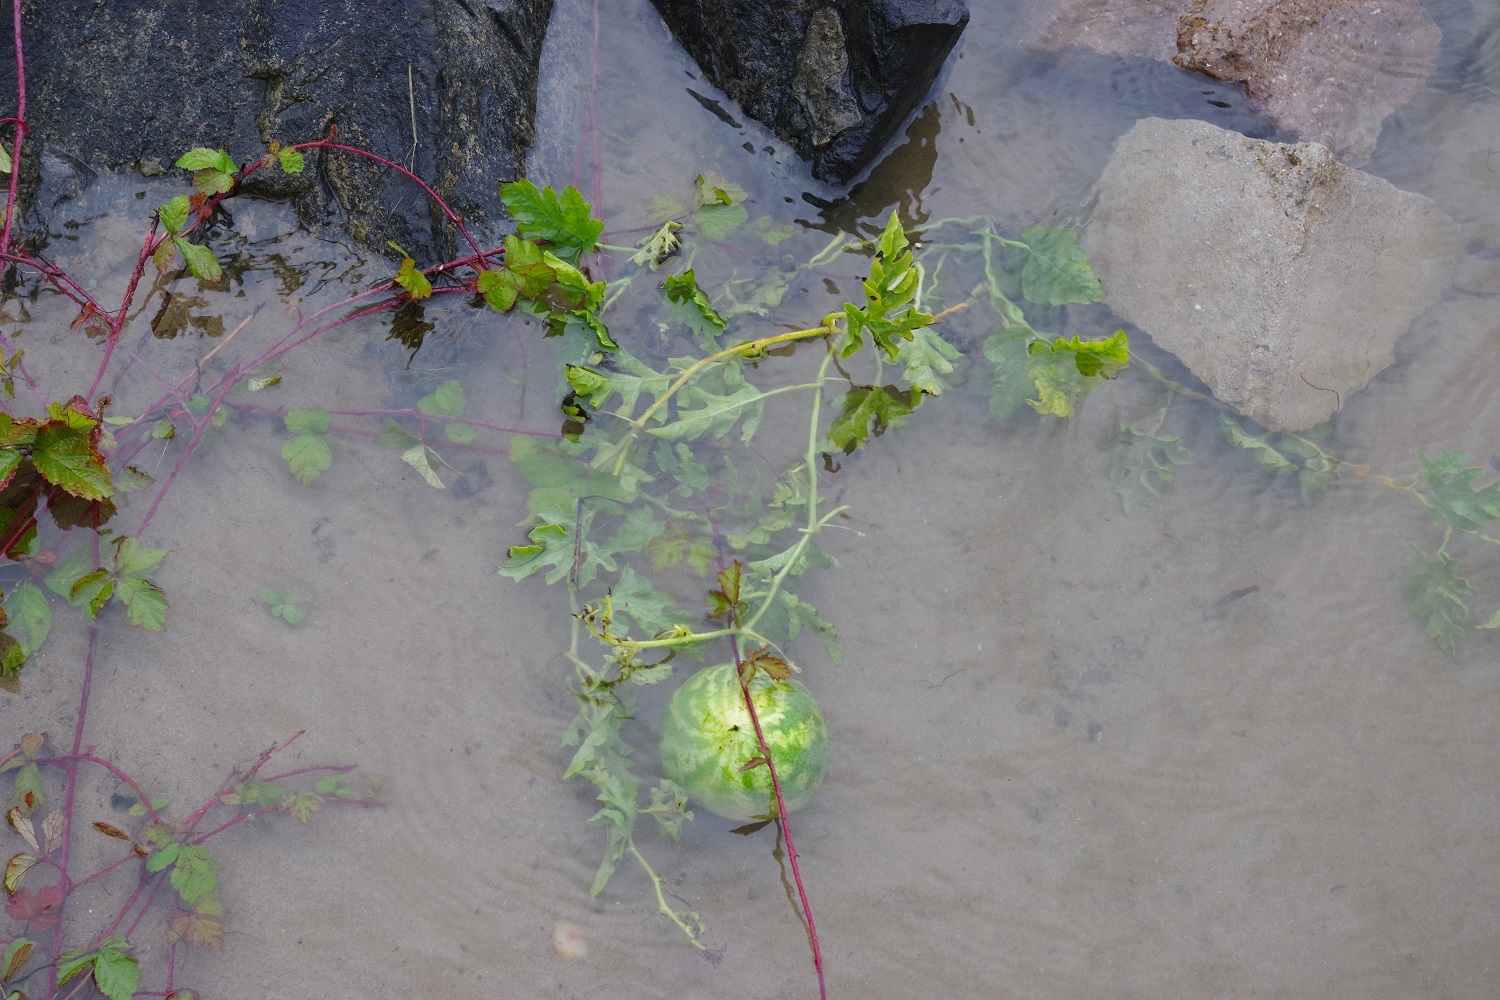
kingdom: Plantae
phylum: Tracheophyta
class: Magnoliopsida
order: Cucurbitales
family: Cucurbitaceae
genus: Citrullus
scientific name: Citrullus lanatus
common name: Watermelon
